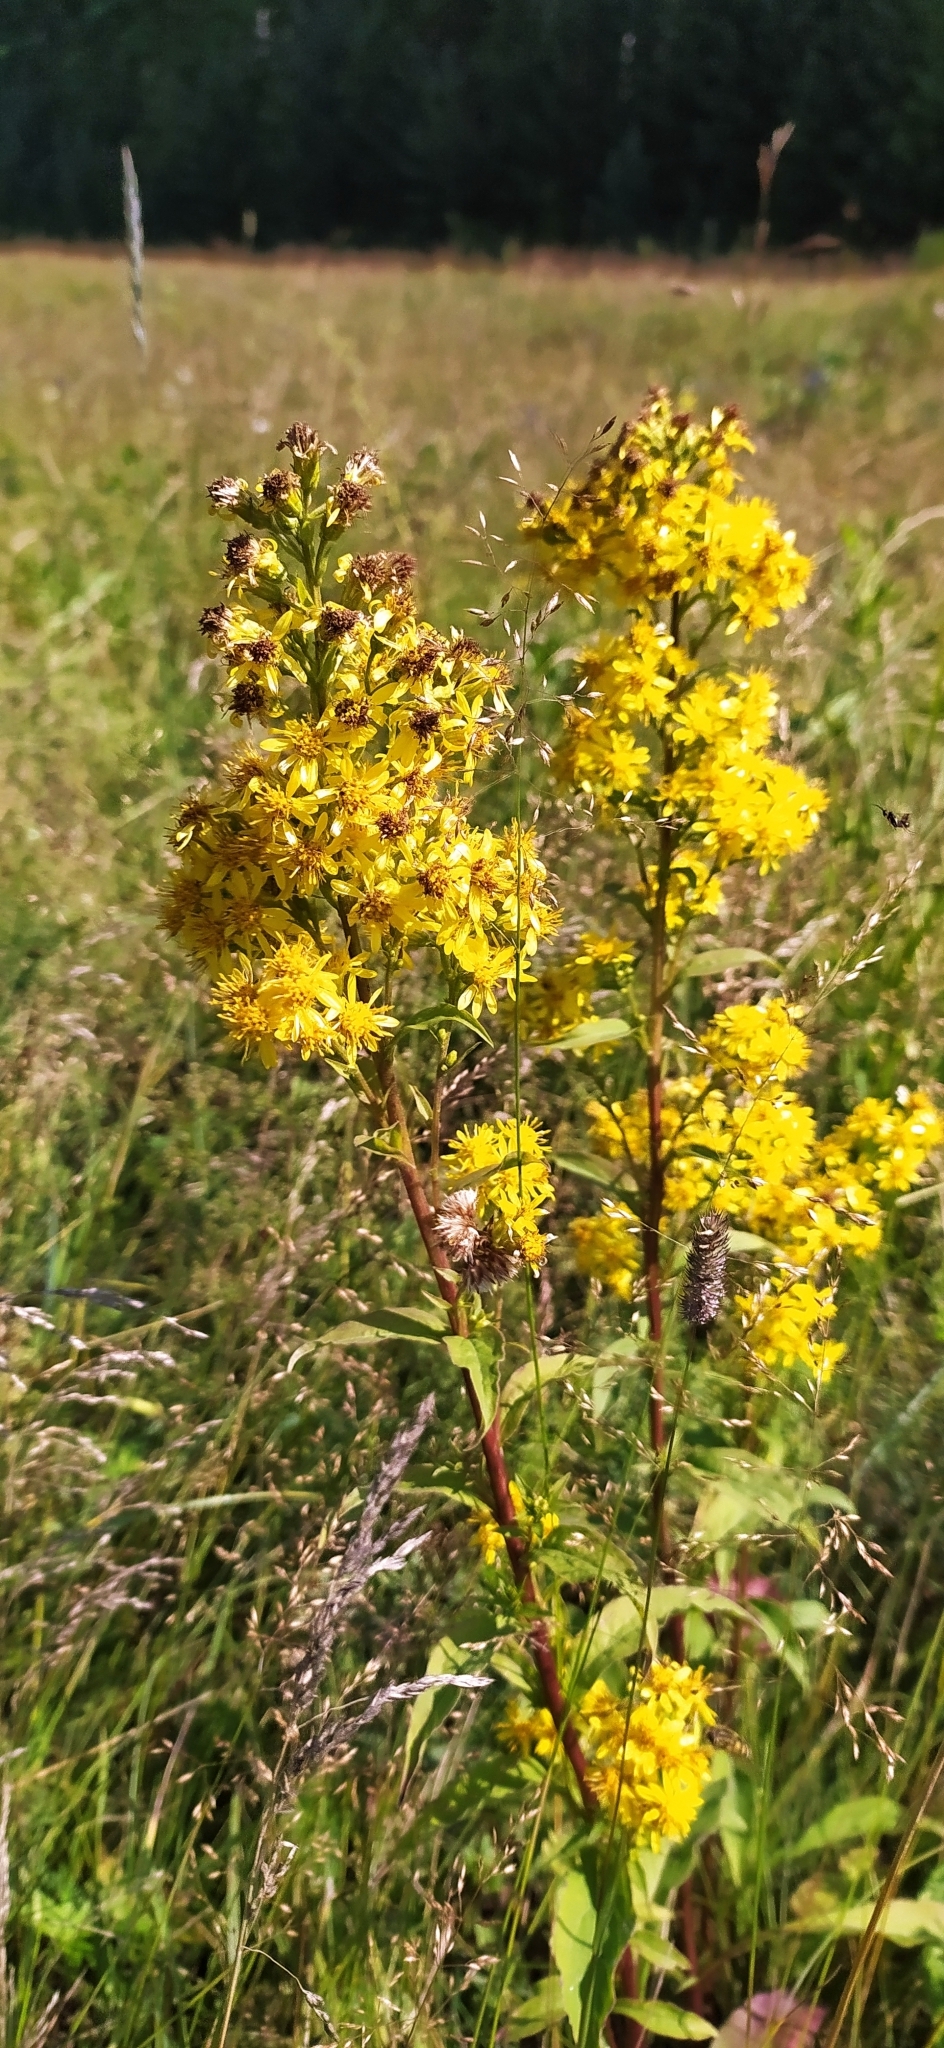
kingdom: Plantae
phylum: Tracheophyta
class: Magnoliopsida
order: Asterales
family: Asteraceae
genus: Solidago
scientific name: Solidago virgaurea
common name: Goldenrod
